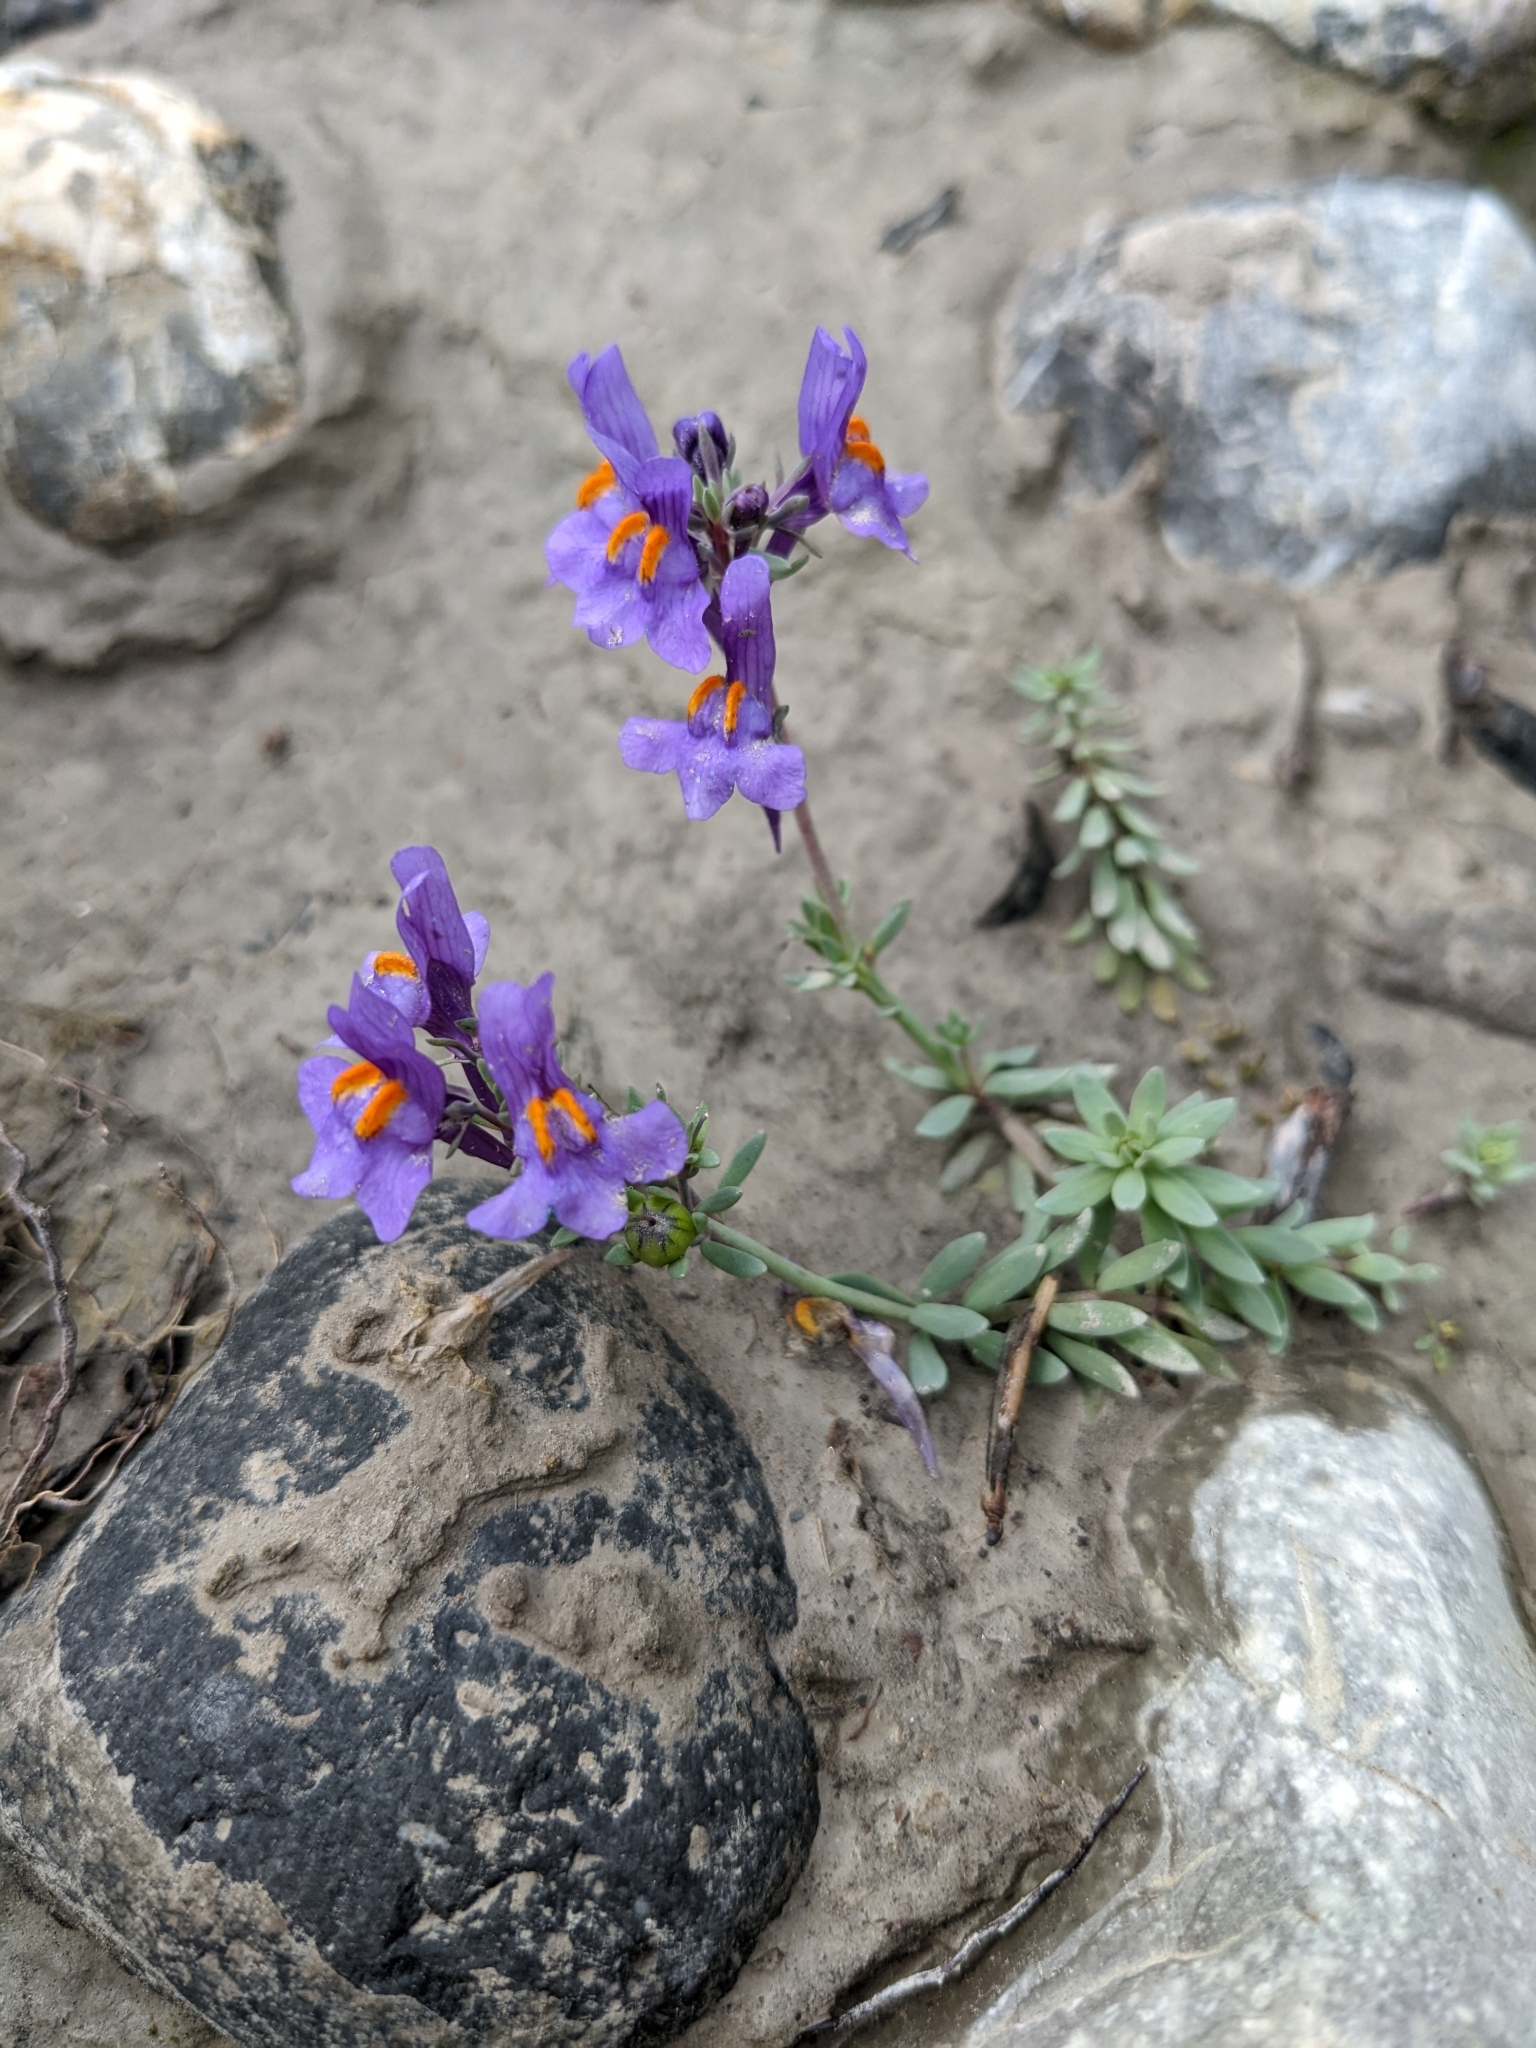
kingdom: Plantae
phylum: Tracheophyta
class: Magnoliopsida
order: Lamiales
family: Plantaginaceae
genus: Linaria
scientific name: Linaria alpina
